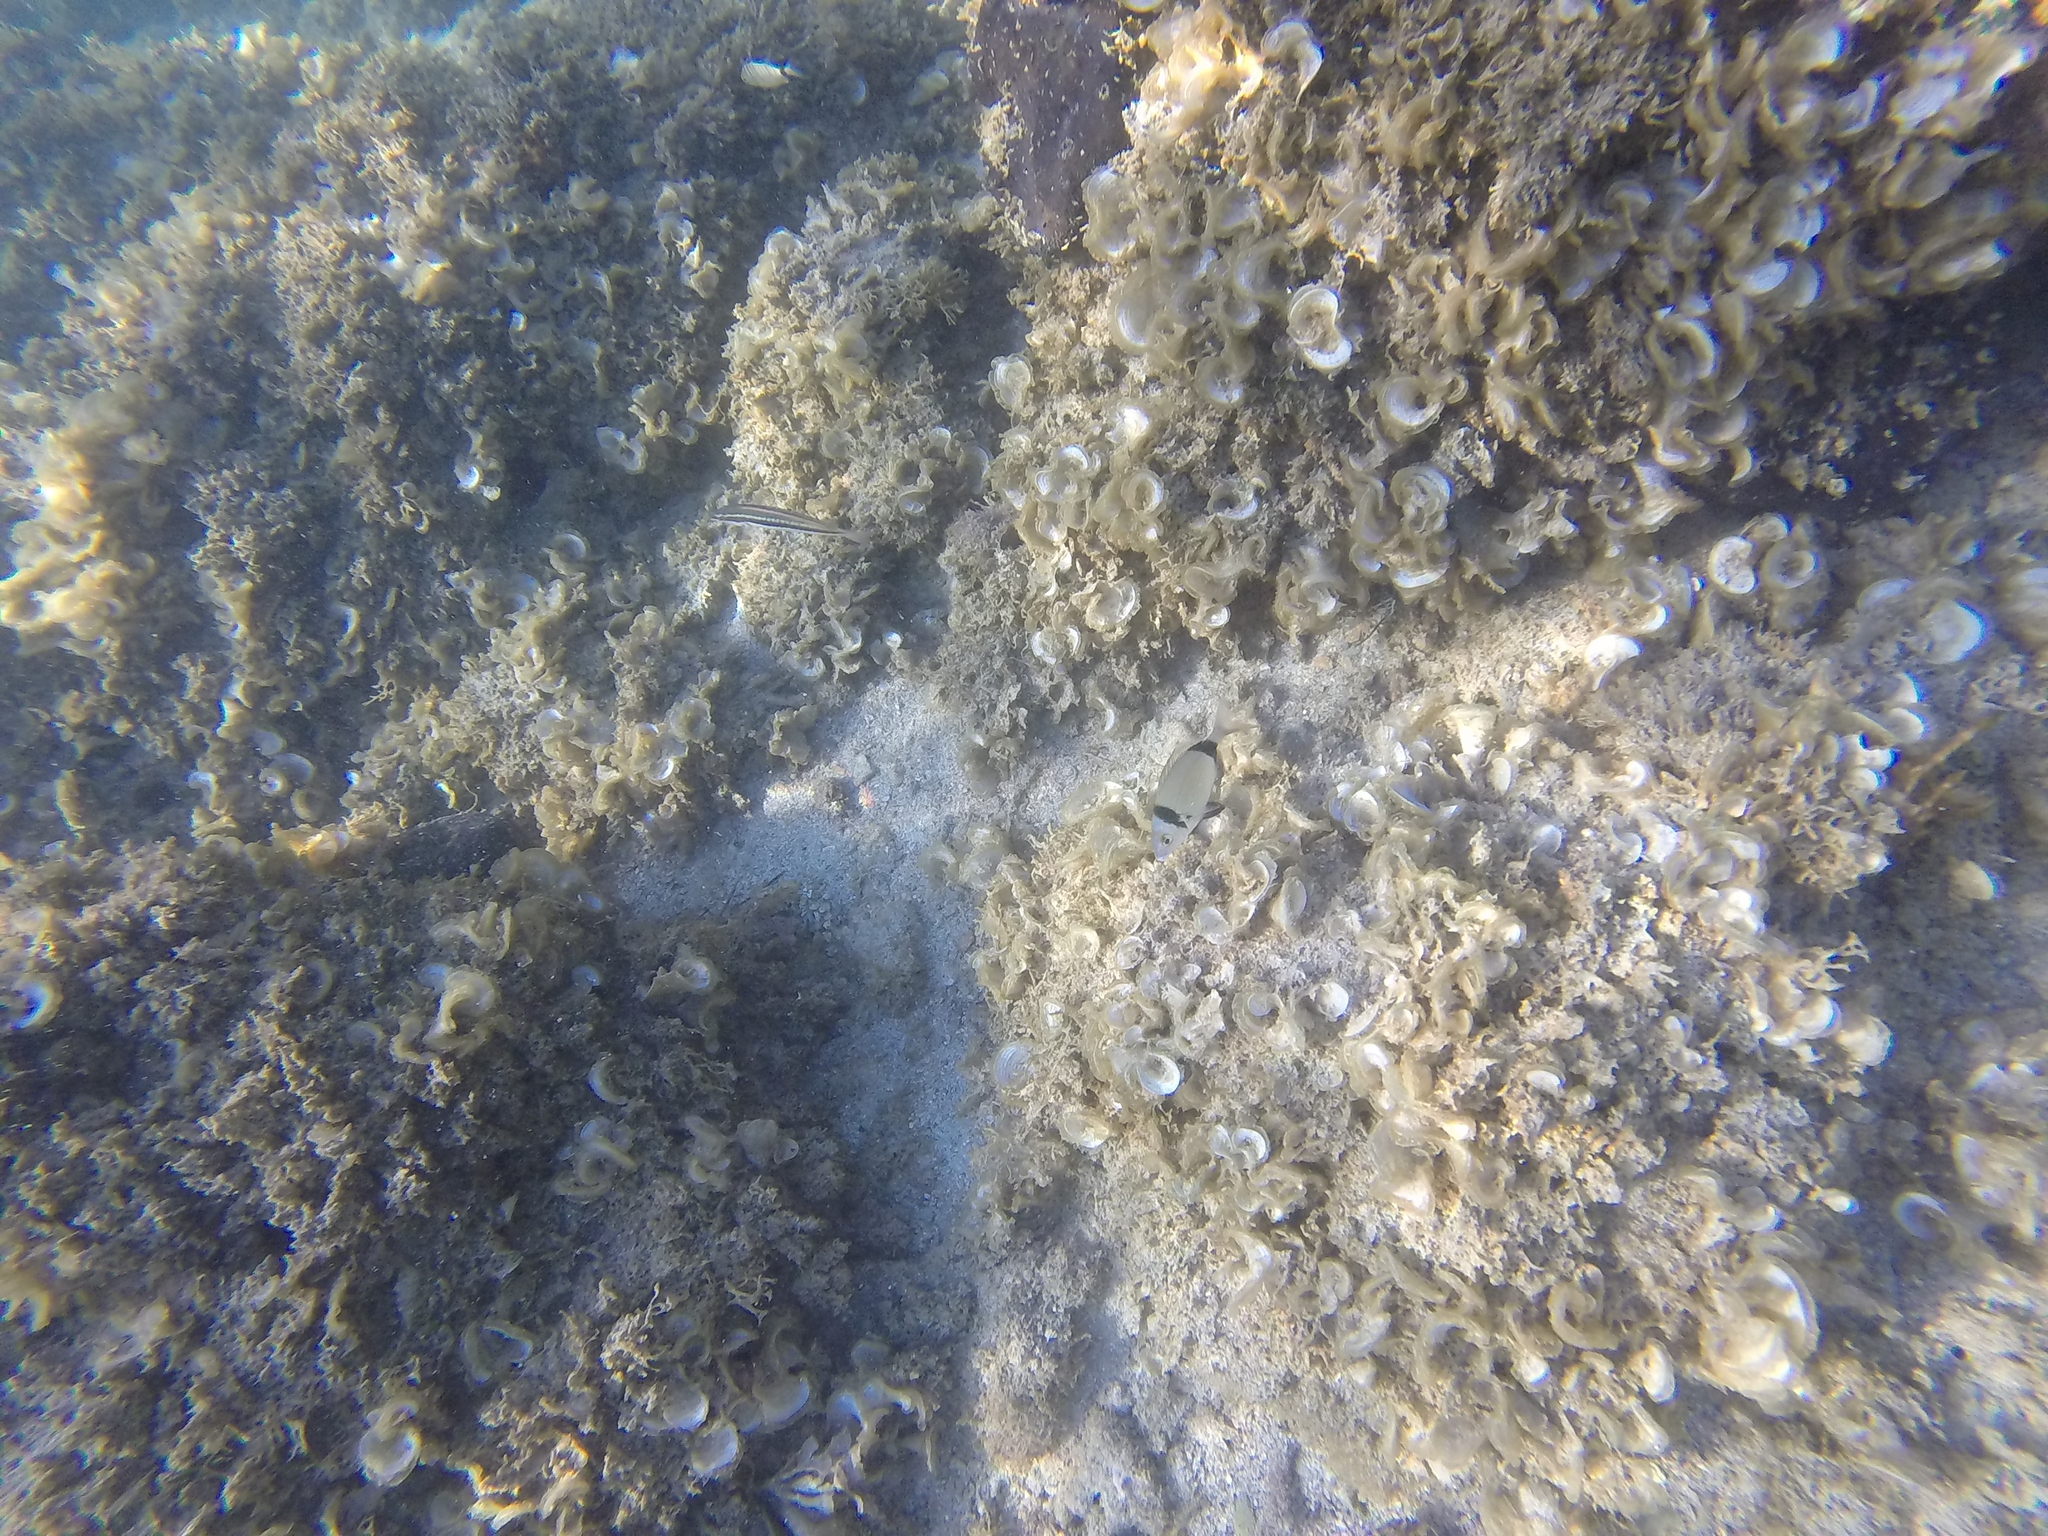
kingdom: Animalia
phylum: Chordata
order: Perciformes
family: Sparidae
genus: Diplodus
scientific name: Diplodus vulgaris
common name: Common two-banded seabream
